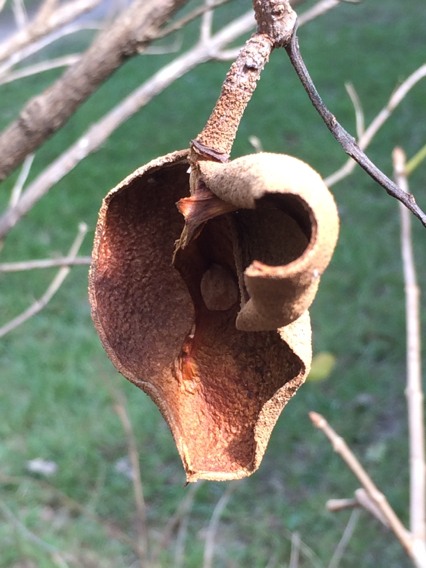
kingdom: Plantae
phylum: Tracheophyta
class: Magnoliopsida
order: Sapindales
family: Sapindaceae
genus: Aesculus
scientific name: Aesculus pavia
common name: Red buckeye
